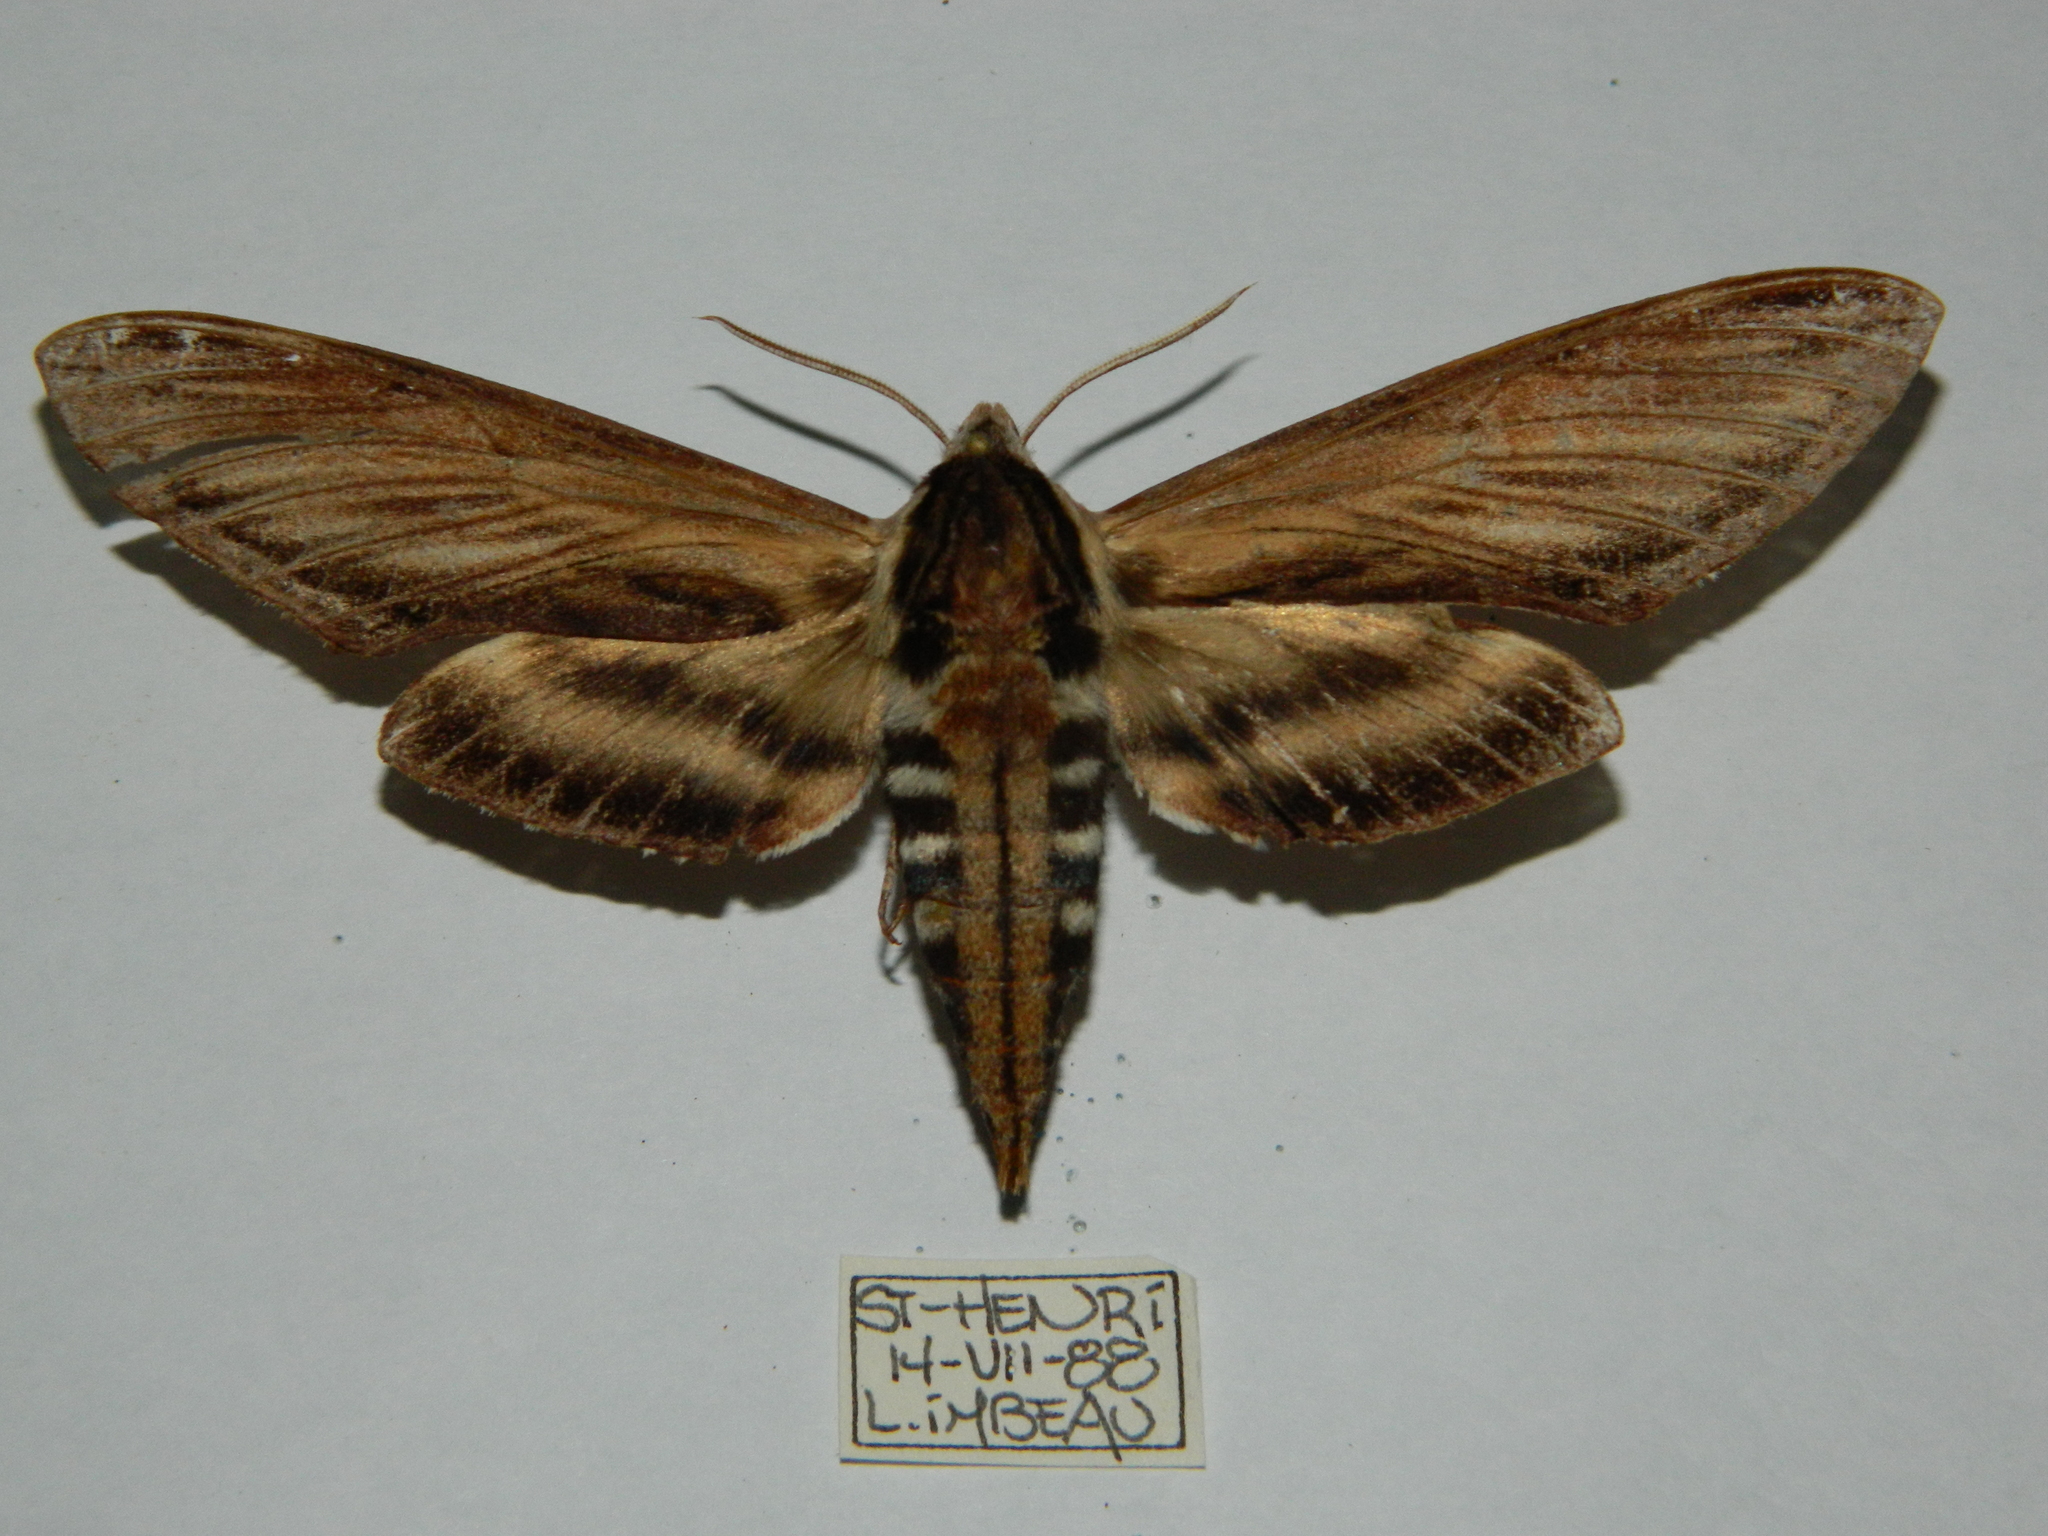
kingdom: Animalia
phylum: Arthropoda
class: Insecta
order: Lepidoptera
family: Sphingidae
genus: Sphinx
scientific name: Sphinx kalmiae
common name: Laurel sphinx
